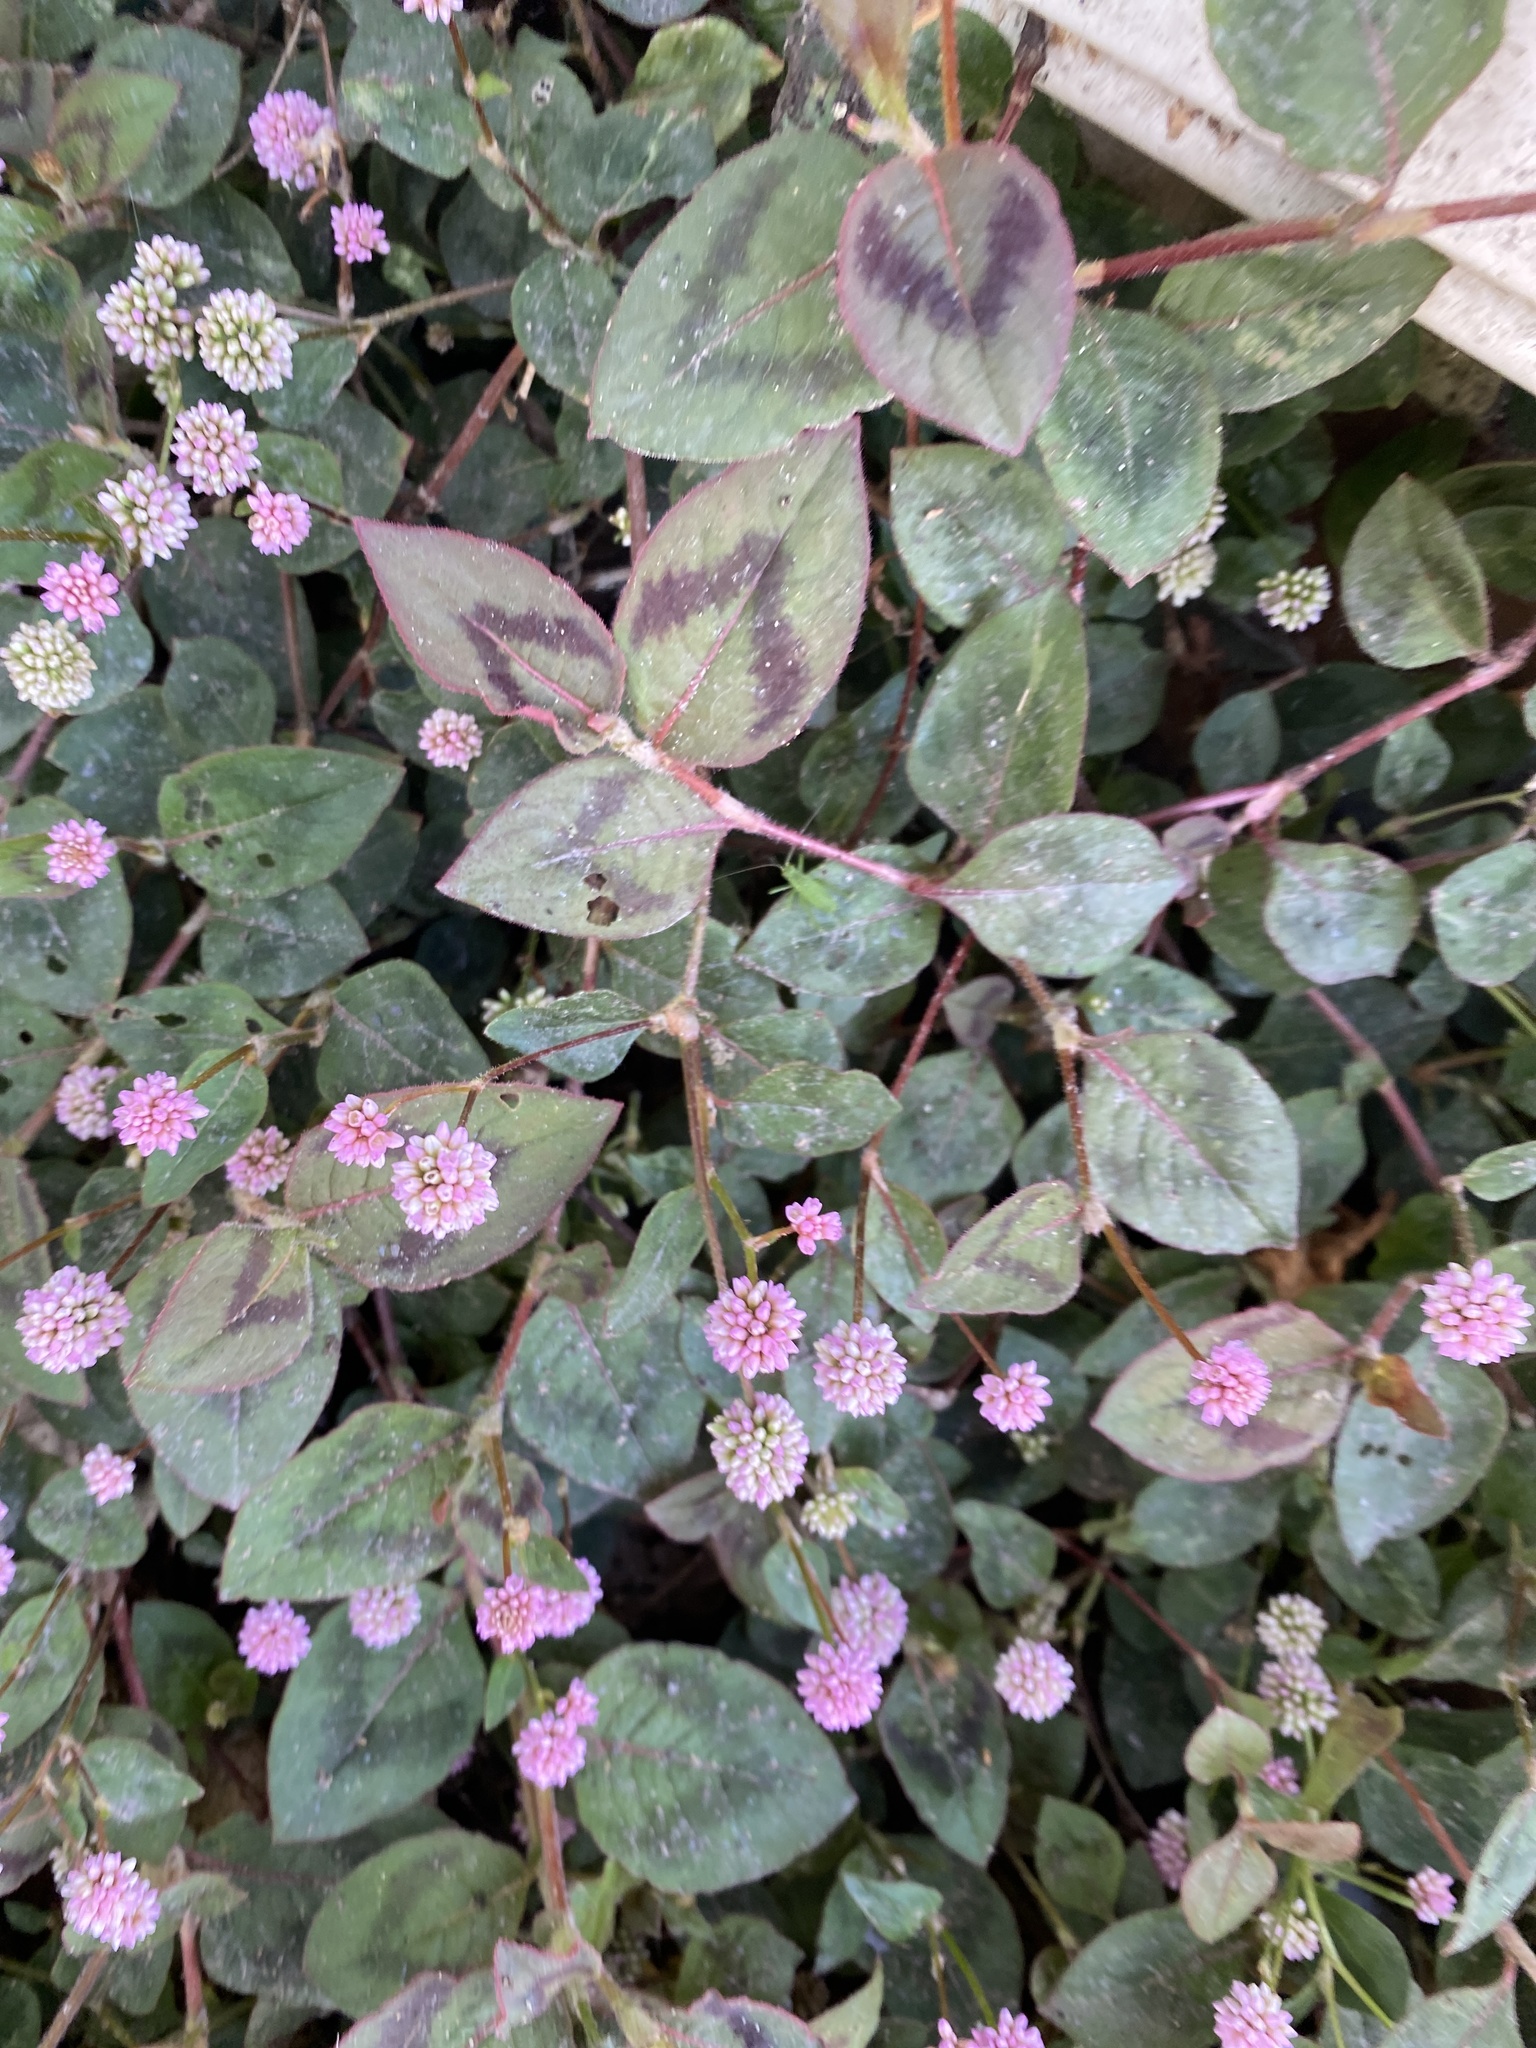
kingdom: Plantae
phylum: Tracheophyta
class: Magnoliopsida
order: Caryophyllales
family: Polygonaceae
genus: Persicaria
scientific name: Persicaria capitata
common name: Pinkhead smartweed
